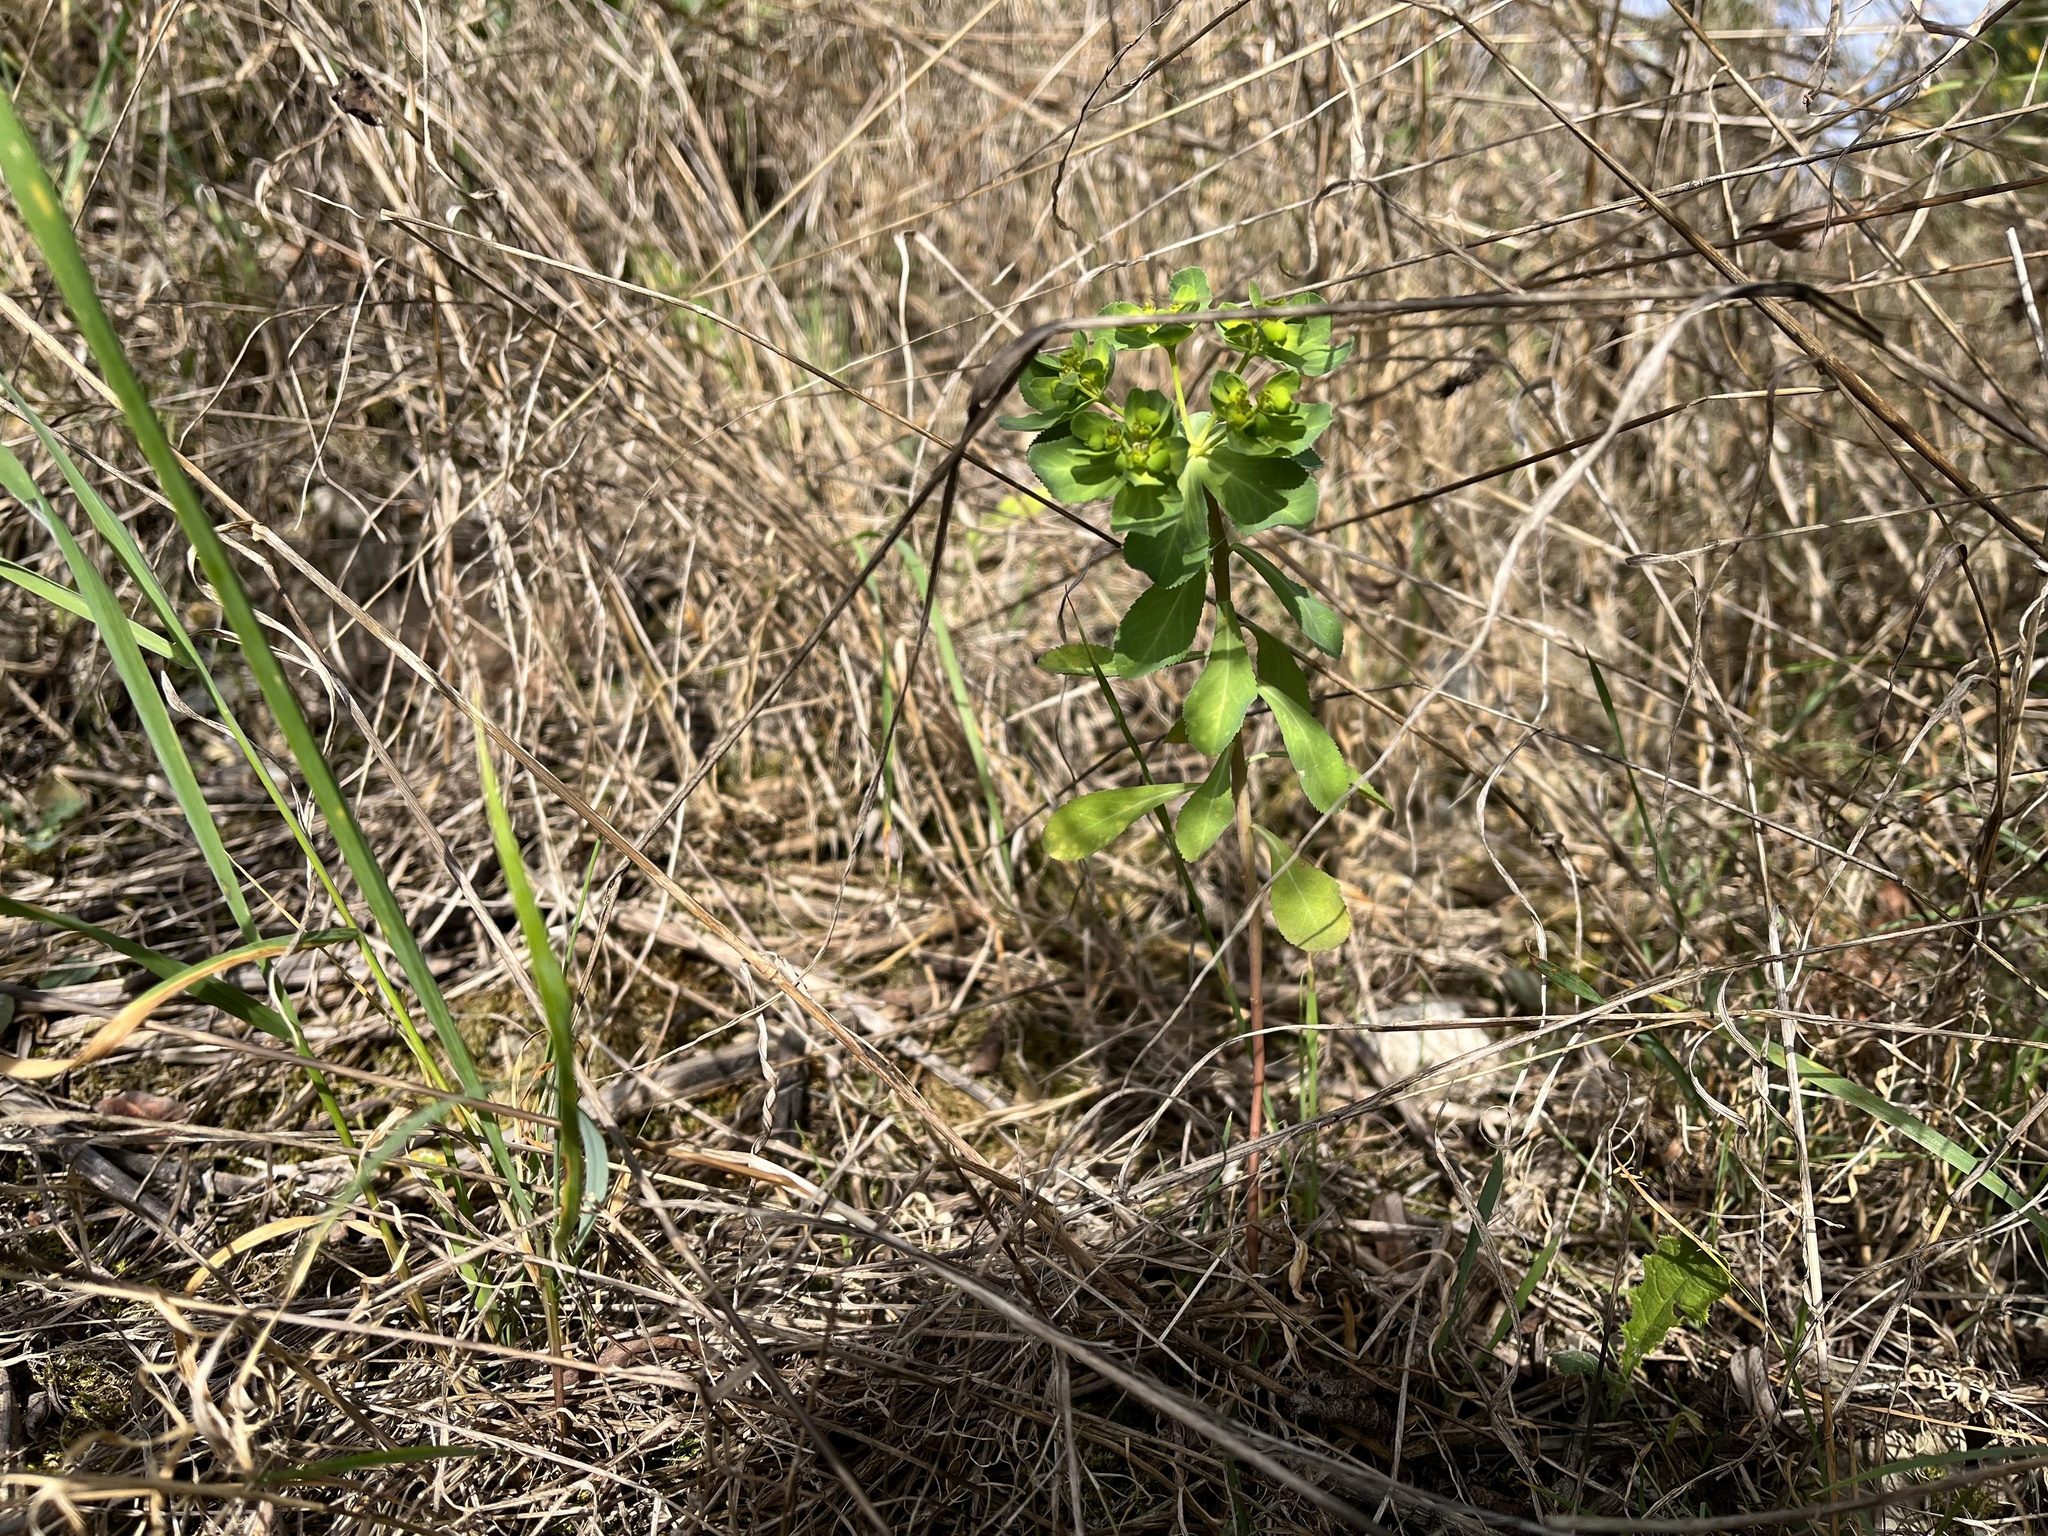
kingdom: Plantae
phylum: Tracheophyta
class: Magnoliopsida
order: Malpighiales
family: Euphorbiaceae
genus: Euphorbia
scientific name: Euphorbia helioscopia
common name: Sun spurge
